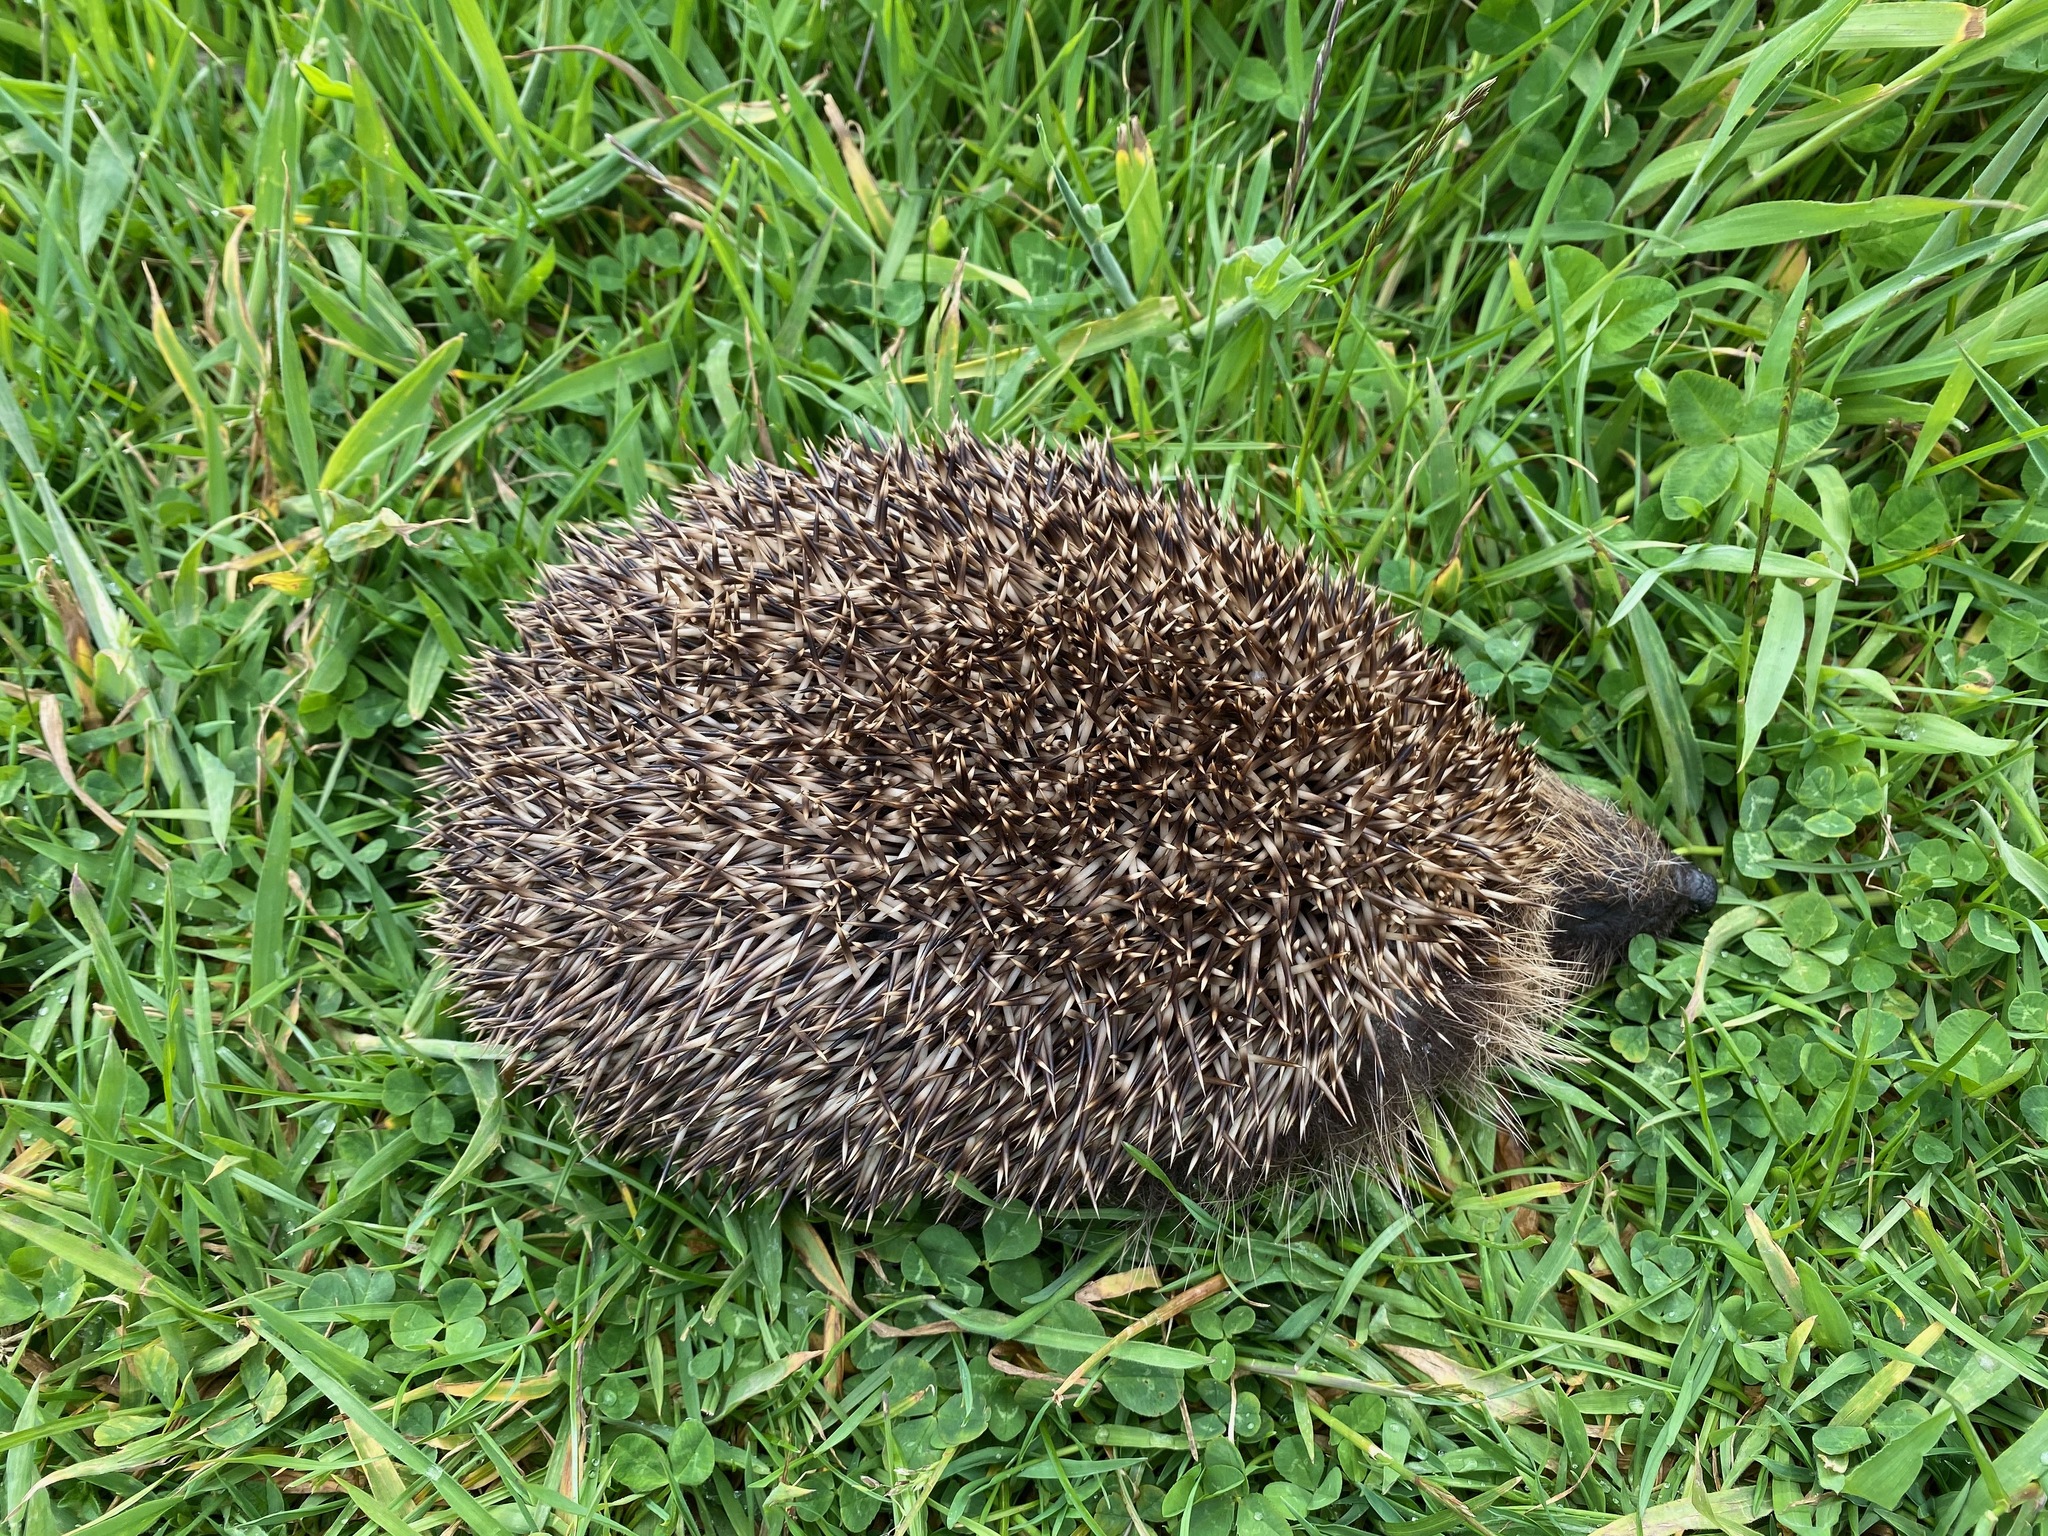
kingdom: Animalia
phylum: Chordata
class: Mammalia
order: Erinaceomorpha
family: Erinaceidae
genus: Erinaceus
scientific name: Erinaceus europaeus
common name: West european hedgehog
